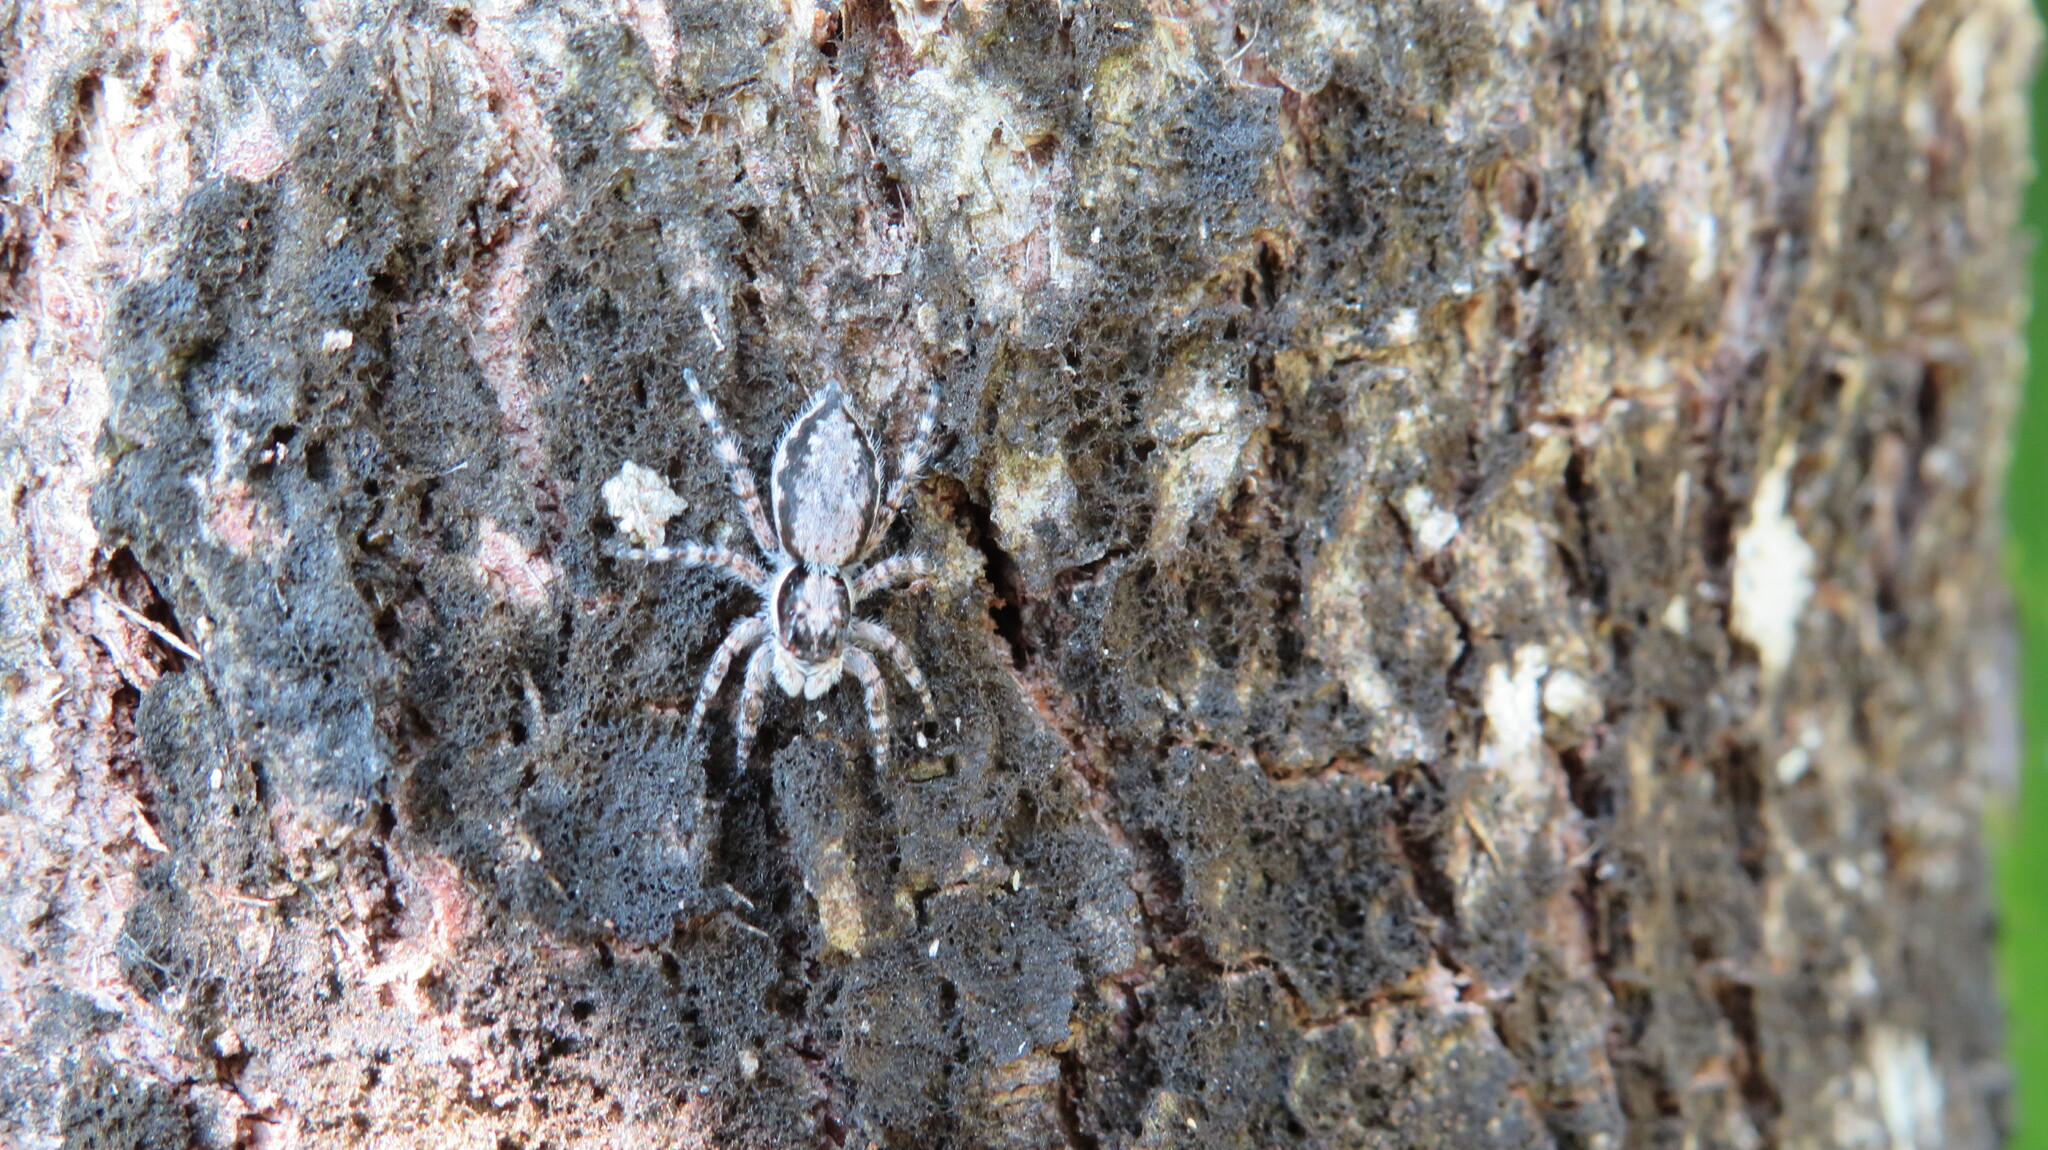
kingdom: Animalia
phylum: Arthropoda
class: Arachnida
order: Araneae
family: Salticidae
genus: Menemerus
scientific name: Menemerus bivittatus
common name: Gray wall jumper
